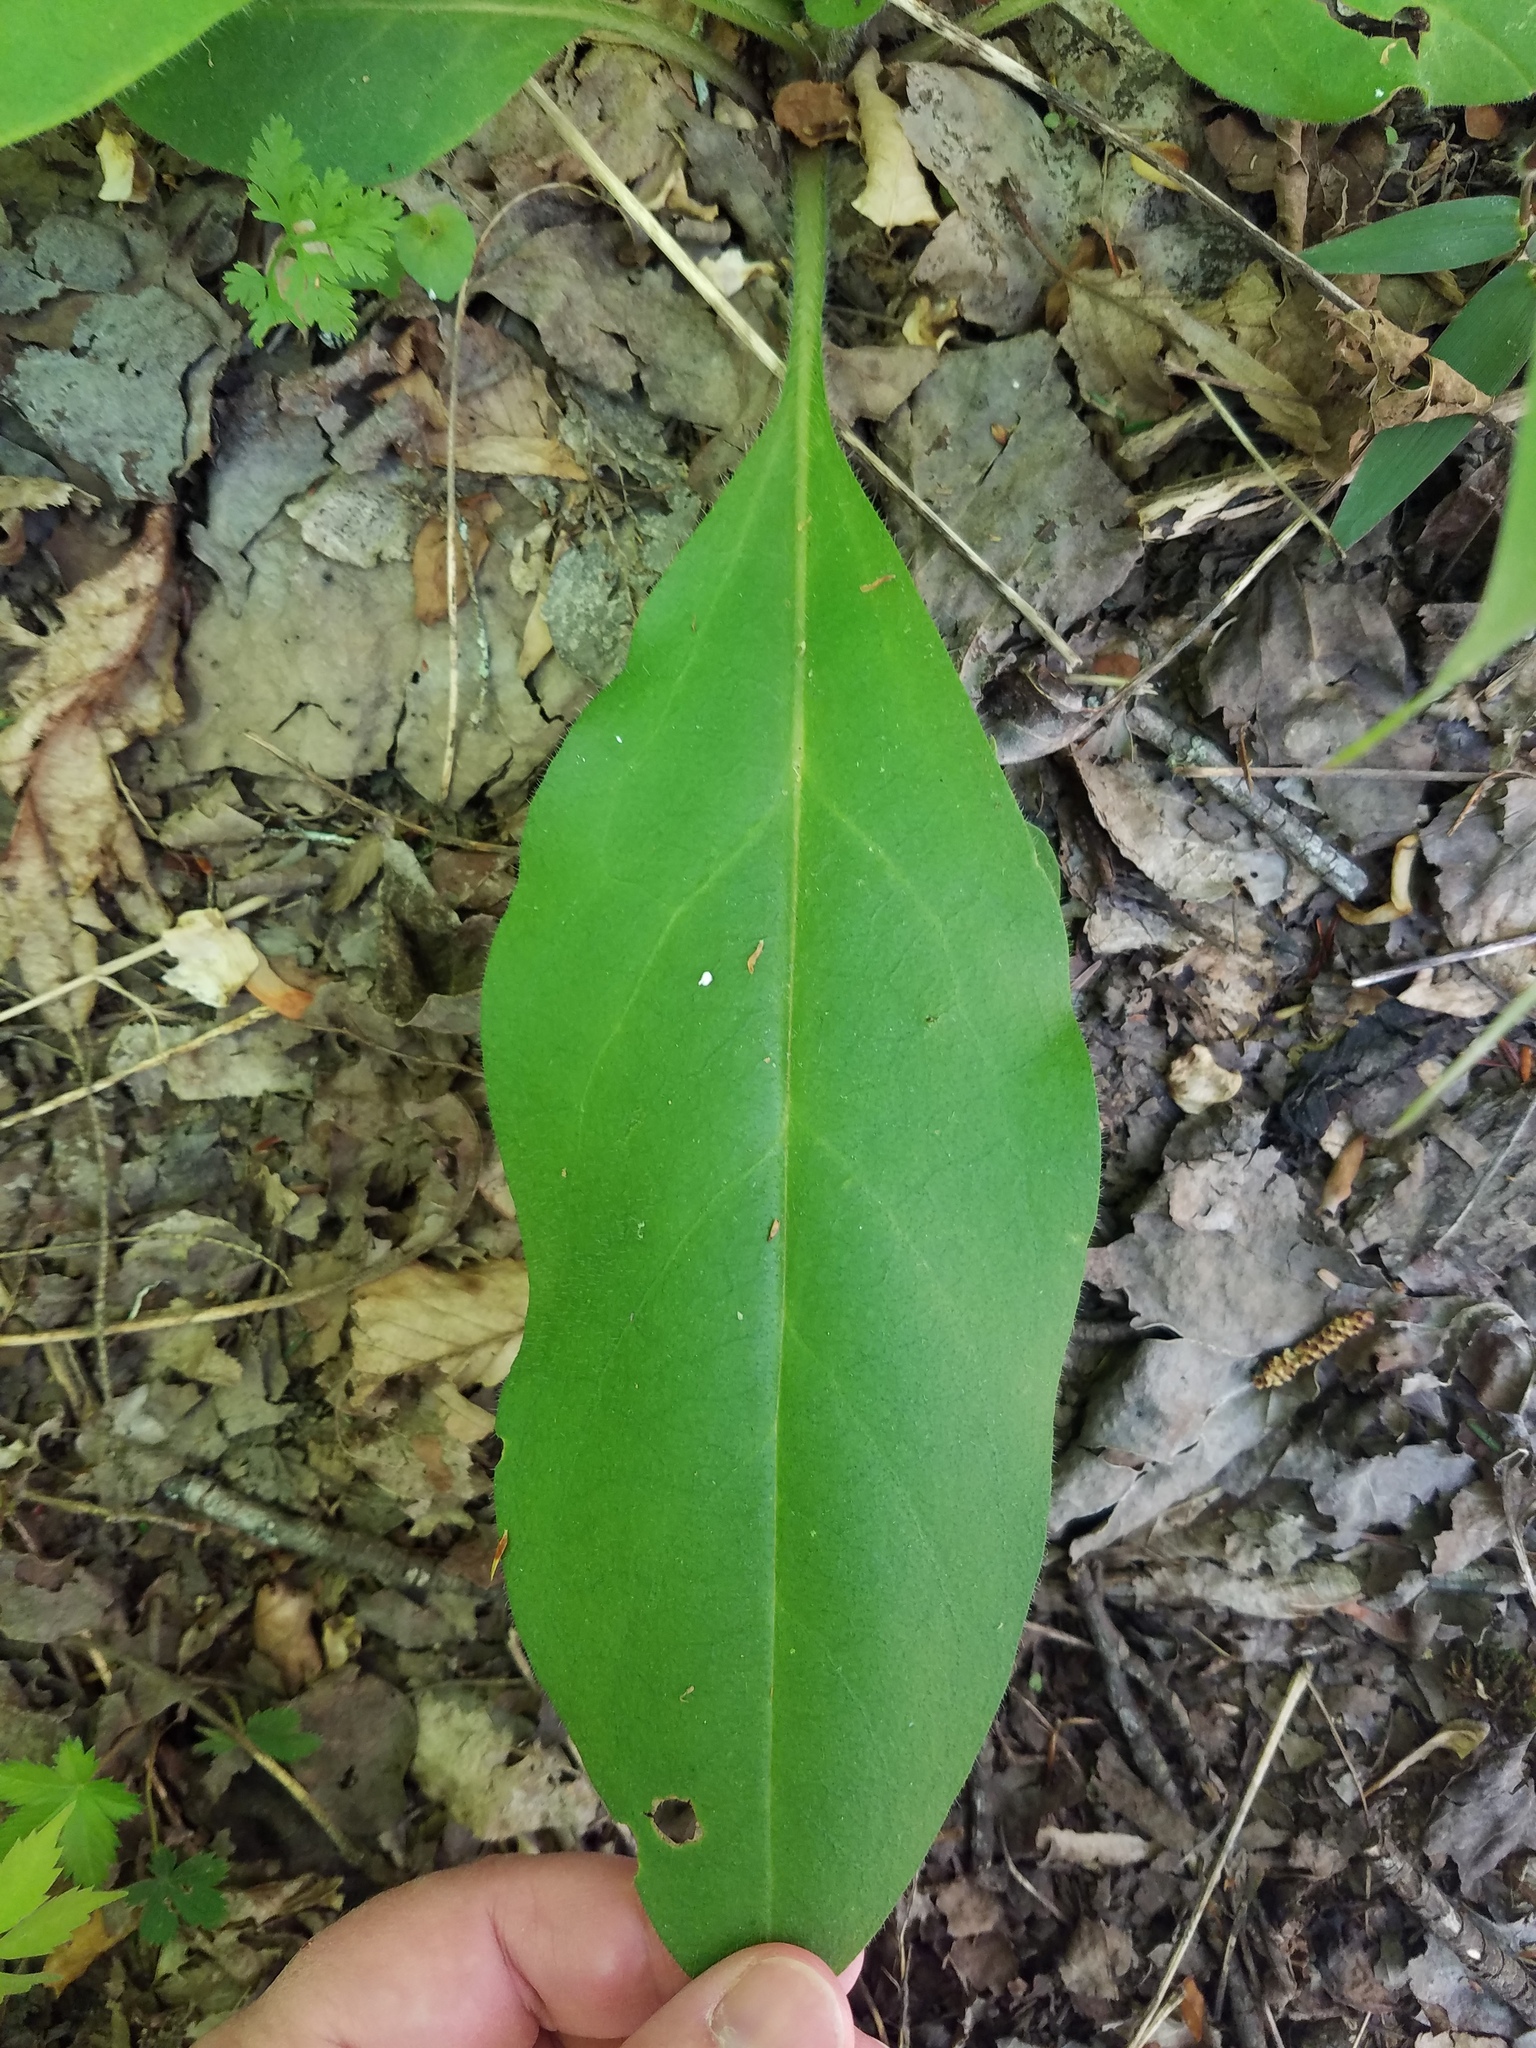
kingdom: Plantae
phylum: Tracheophyta
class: Magnoliopsida
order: Boraginales
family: Boraginaceae
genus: Andersonglossum
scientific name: Andersonglossum virginianum
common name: Wild comfrey
